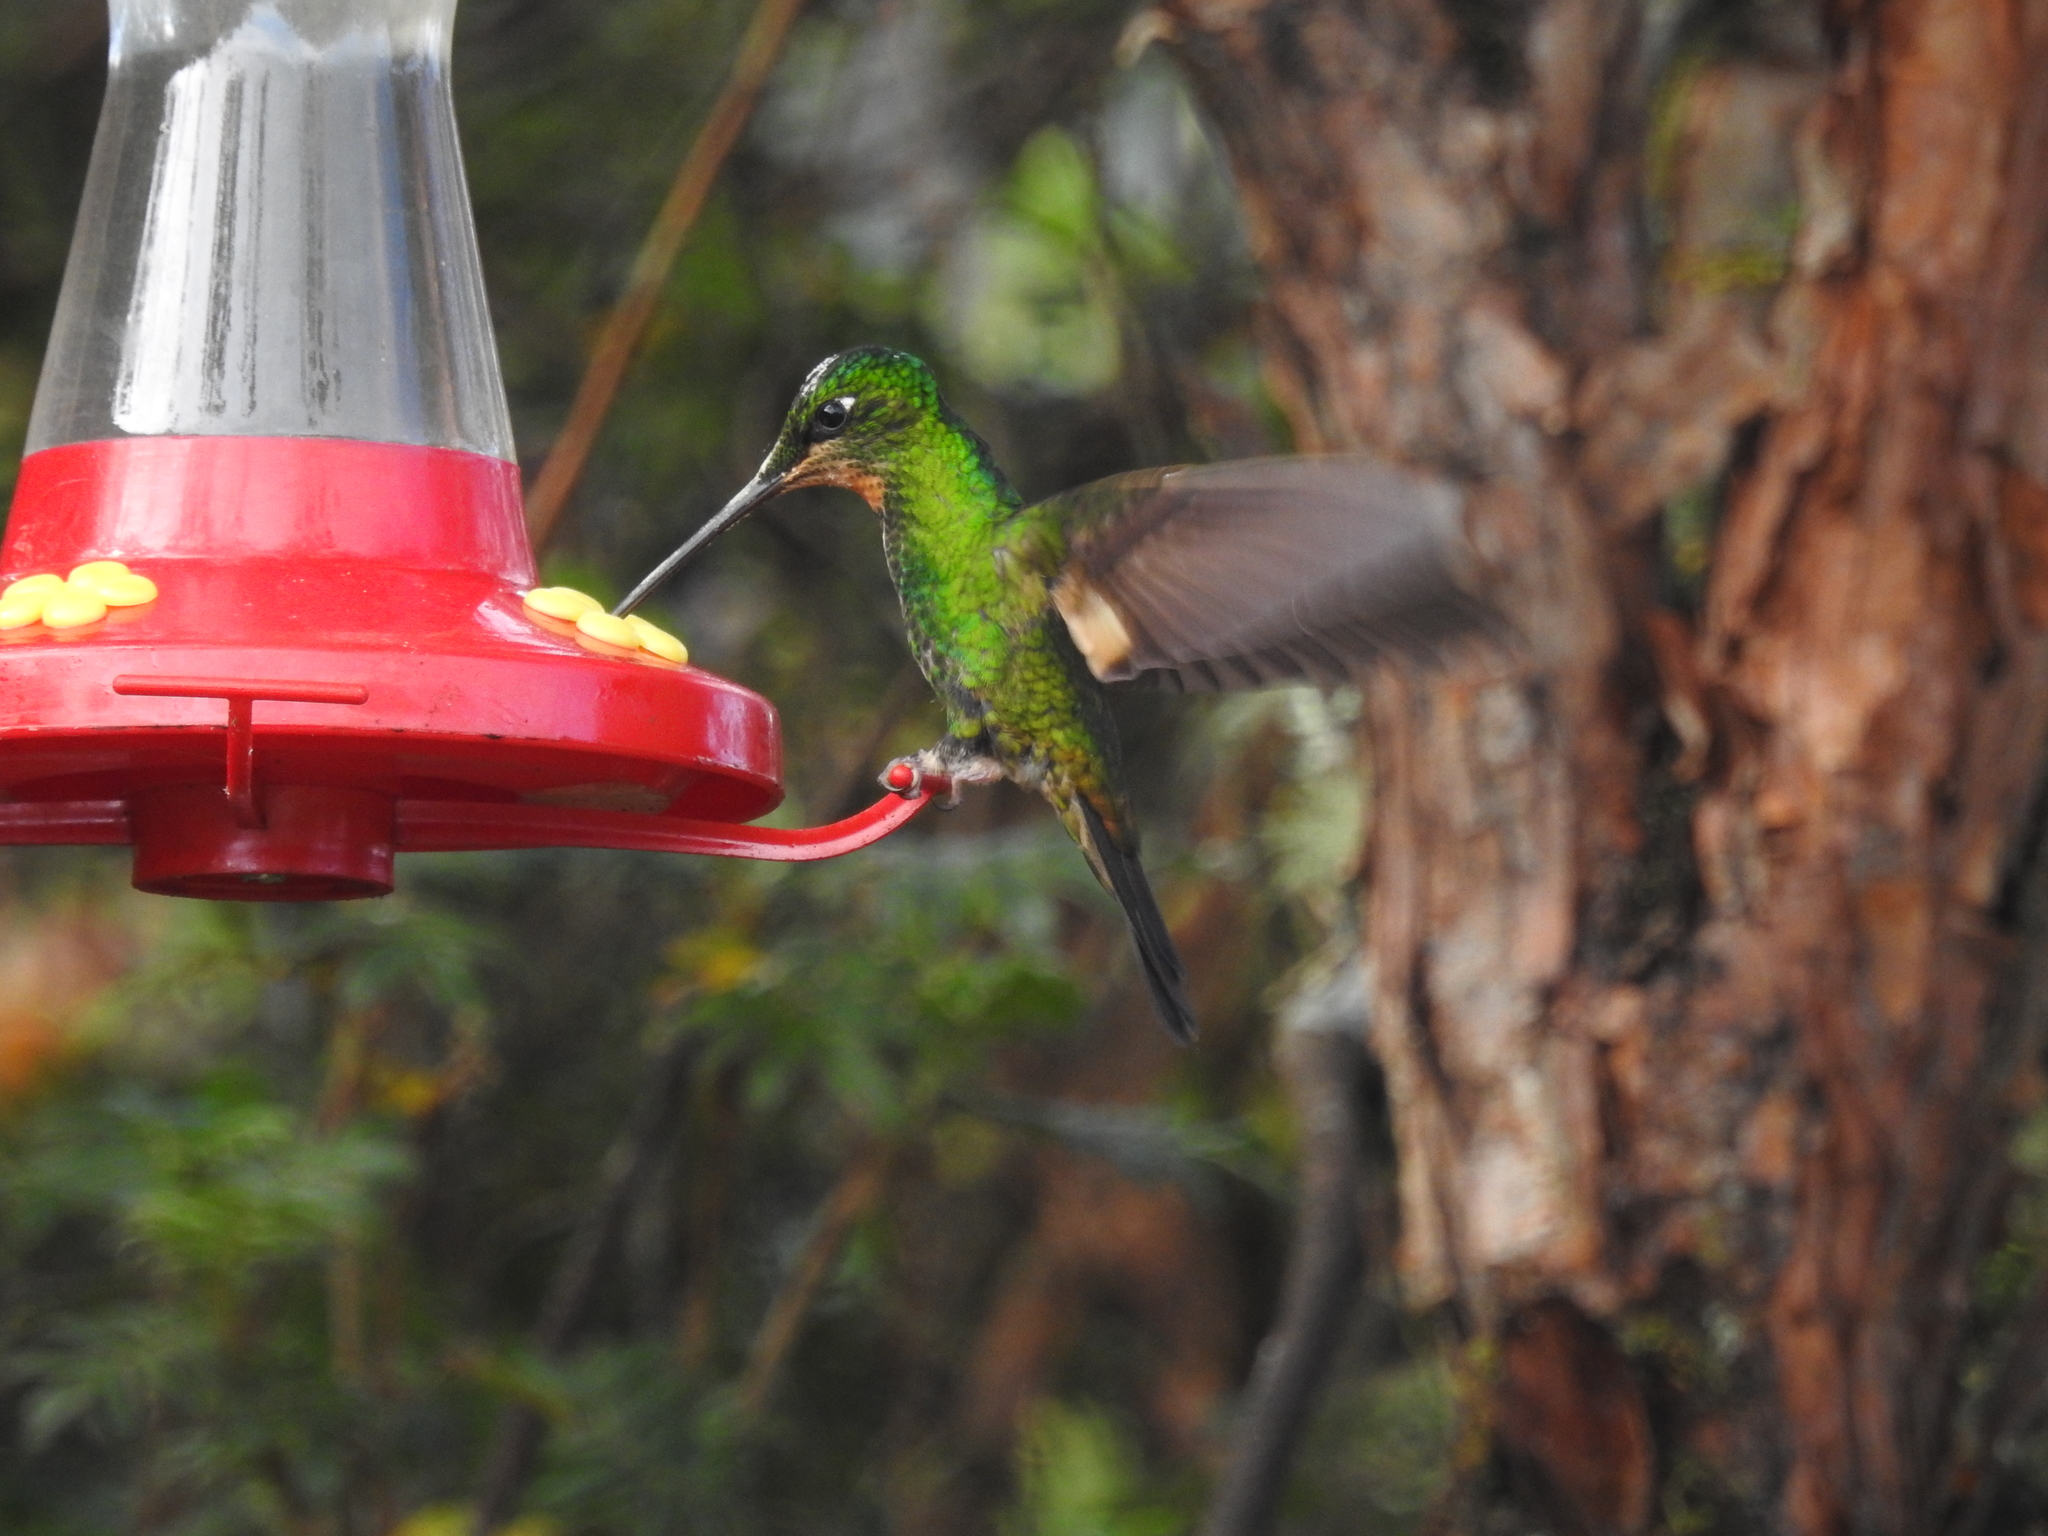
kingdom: Animalia
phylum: Chordata
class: Aves
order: Apodiformes
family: Trochilidae
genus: Coeligena
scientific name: Coeligena lutetiae
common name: Buff-winged starfrontlet
